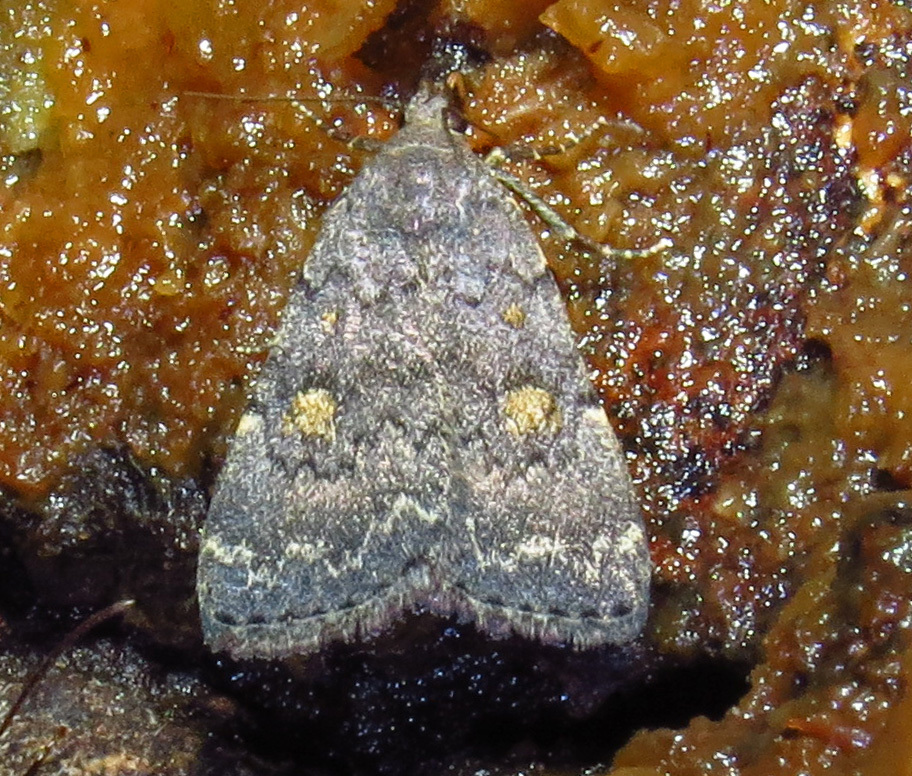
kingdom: Animalia
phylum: Arthropoda
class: Insecta
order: Lepidoptera
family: Erebidae
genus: Idia
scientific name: Idia aemula
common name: Common idia moth
